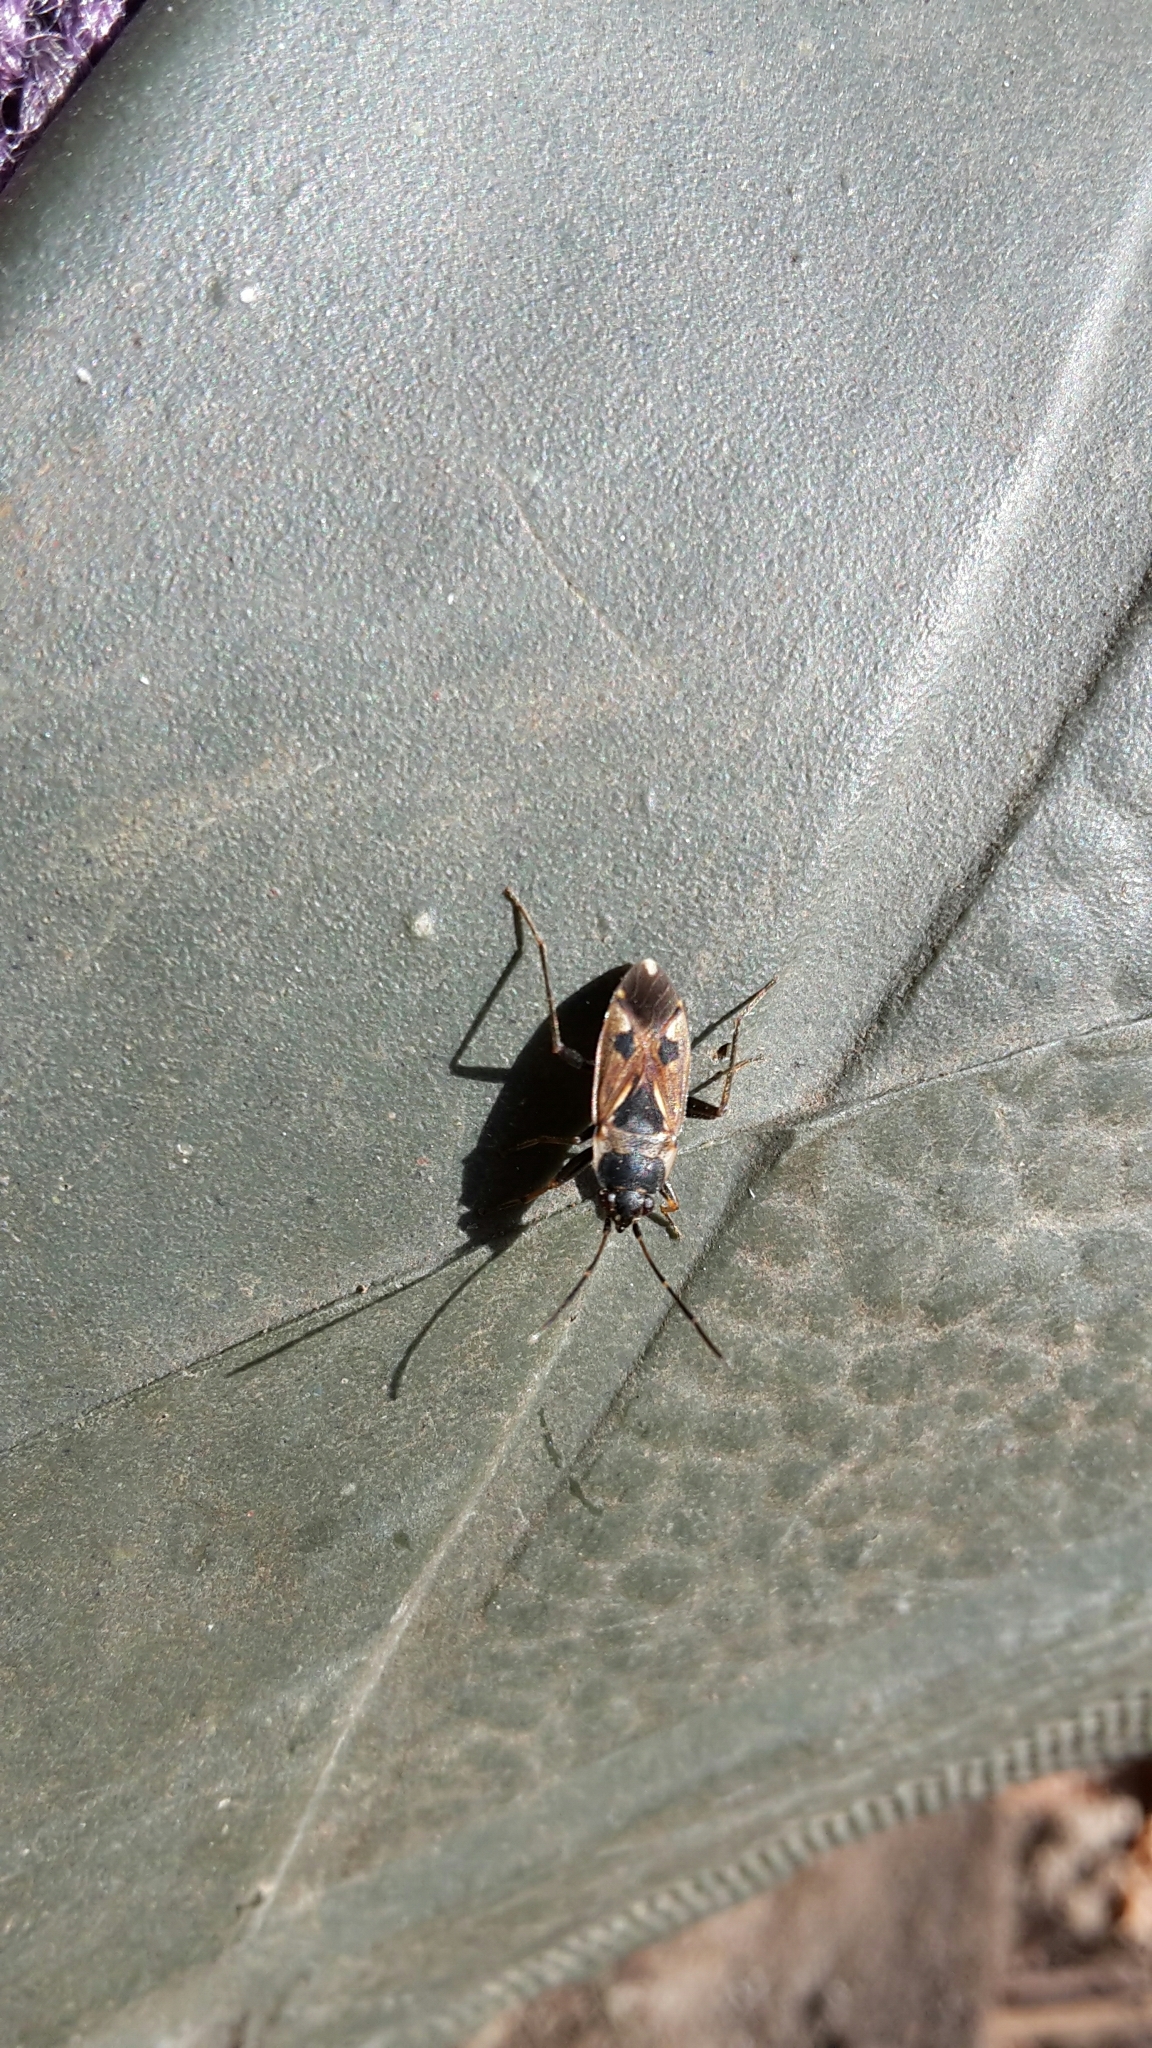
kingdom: Animalia
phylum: Arthropoda
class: Insecta
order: Hemiptera
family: Rhyparochromidae
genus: Rhyparochromus
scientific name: Rhyparochromus vulgaris
